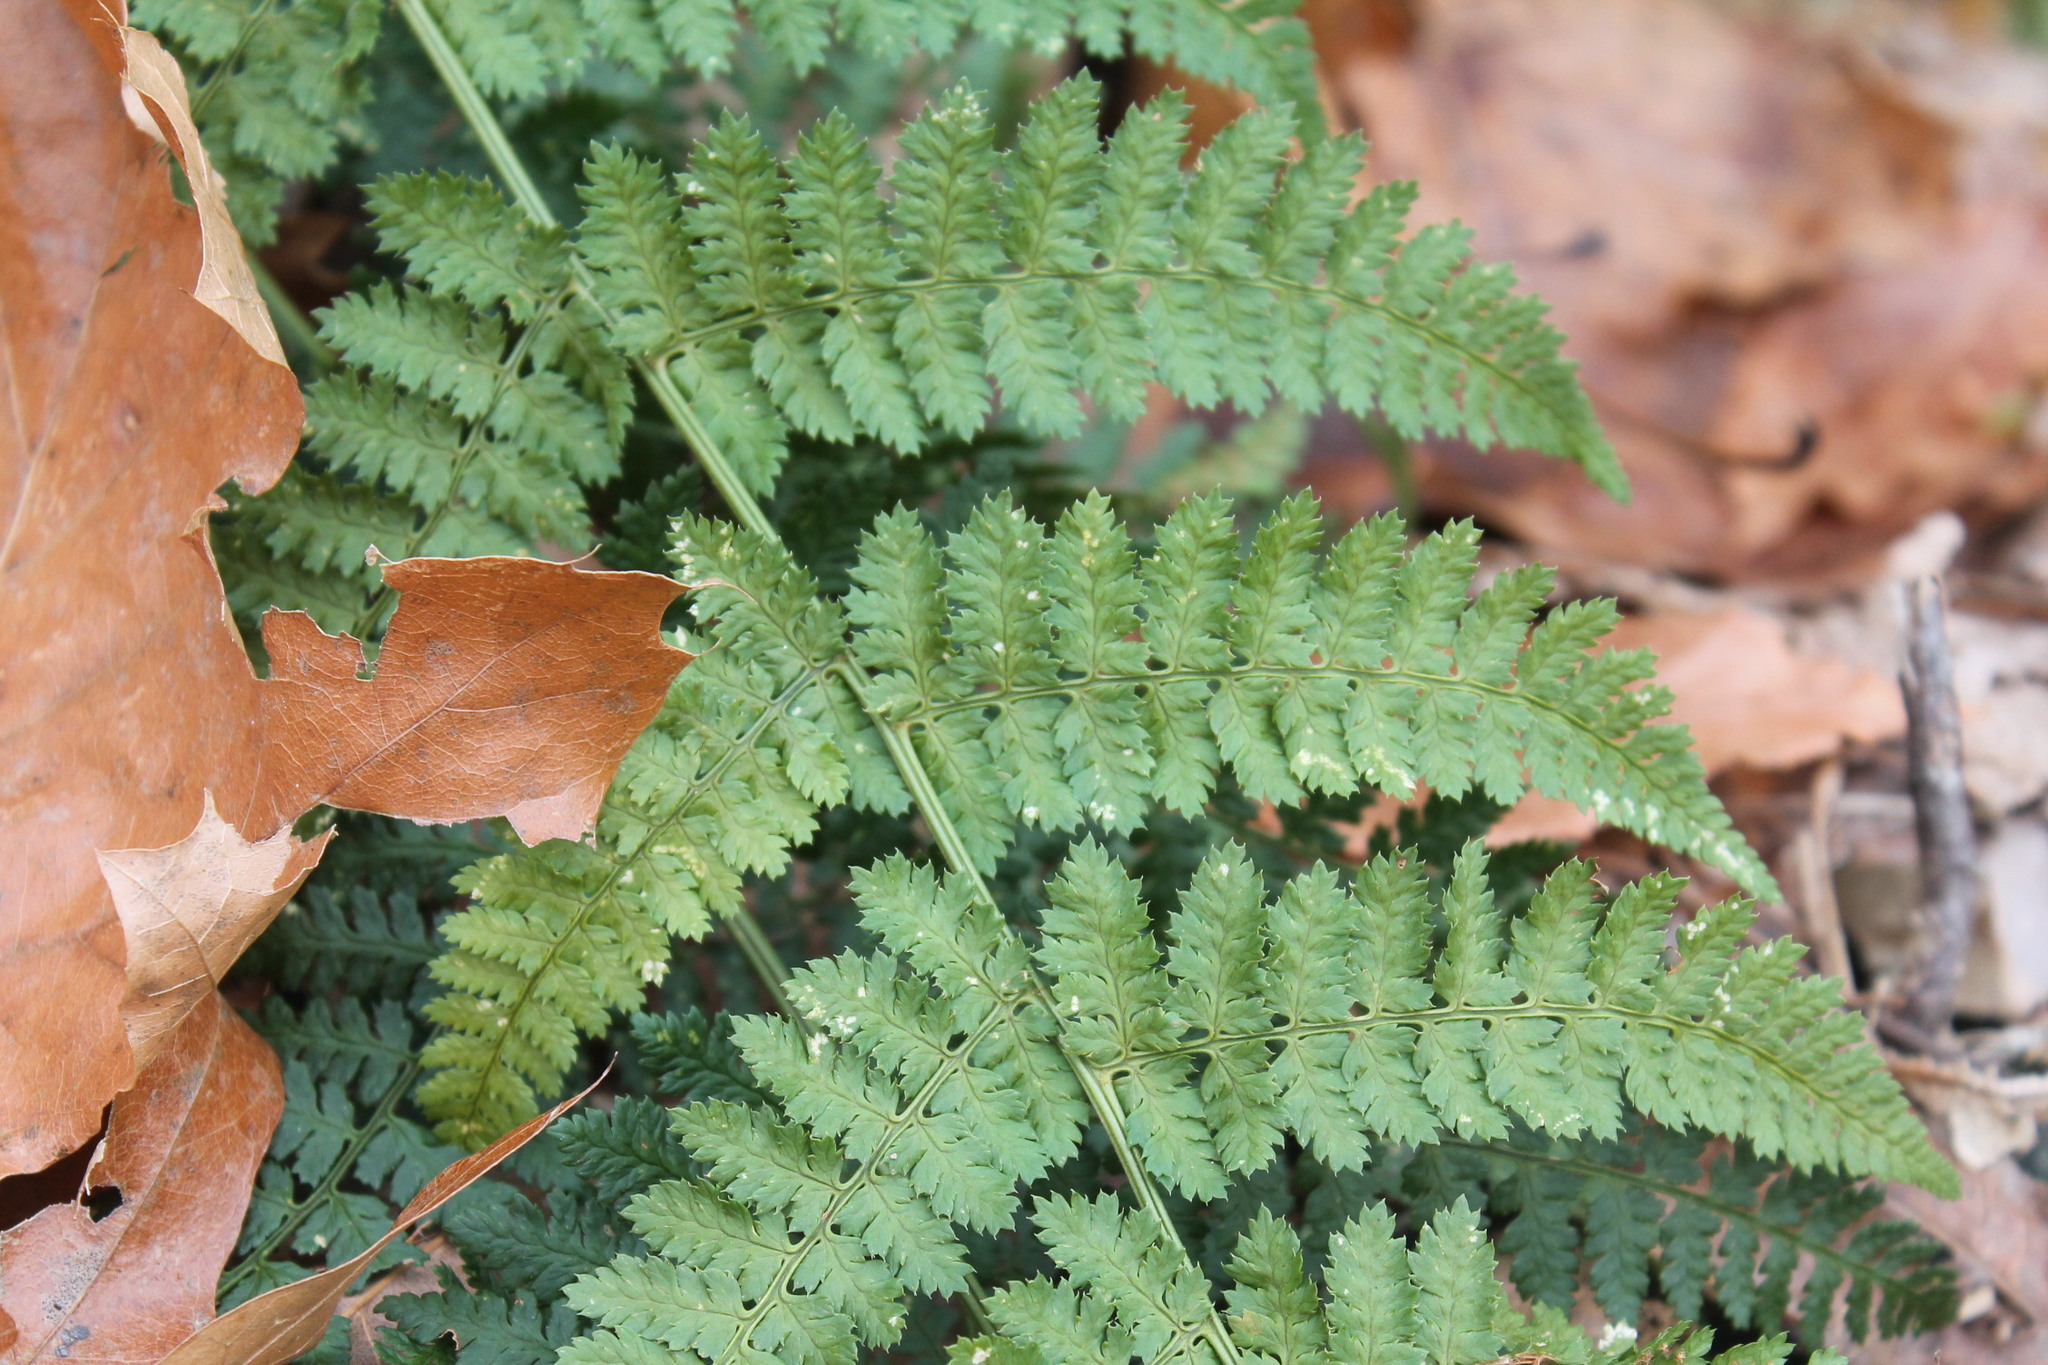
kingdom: Plantae
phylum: Tracheophyta
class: Polypodiopsida
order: Polypodiales
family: Dryopteridaceae
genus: Dryopteris
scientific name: Dryopteris intermedia
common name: Evergreen wood fern
